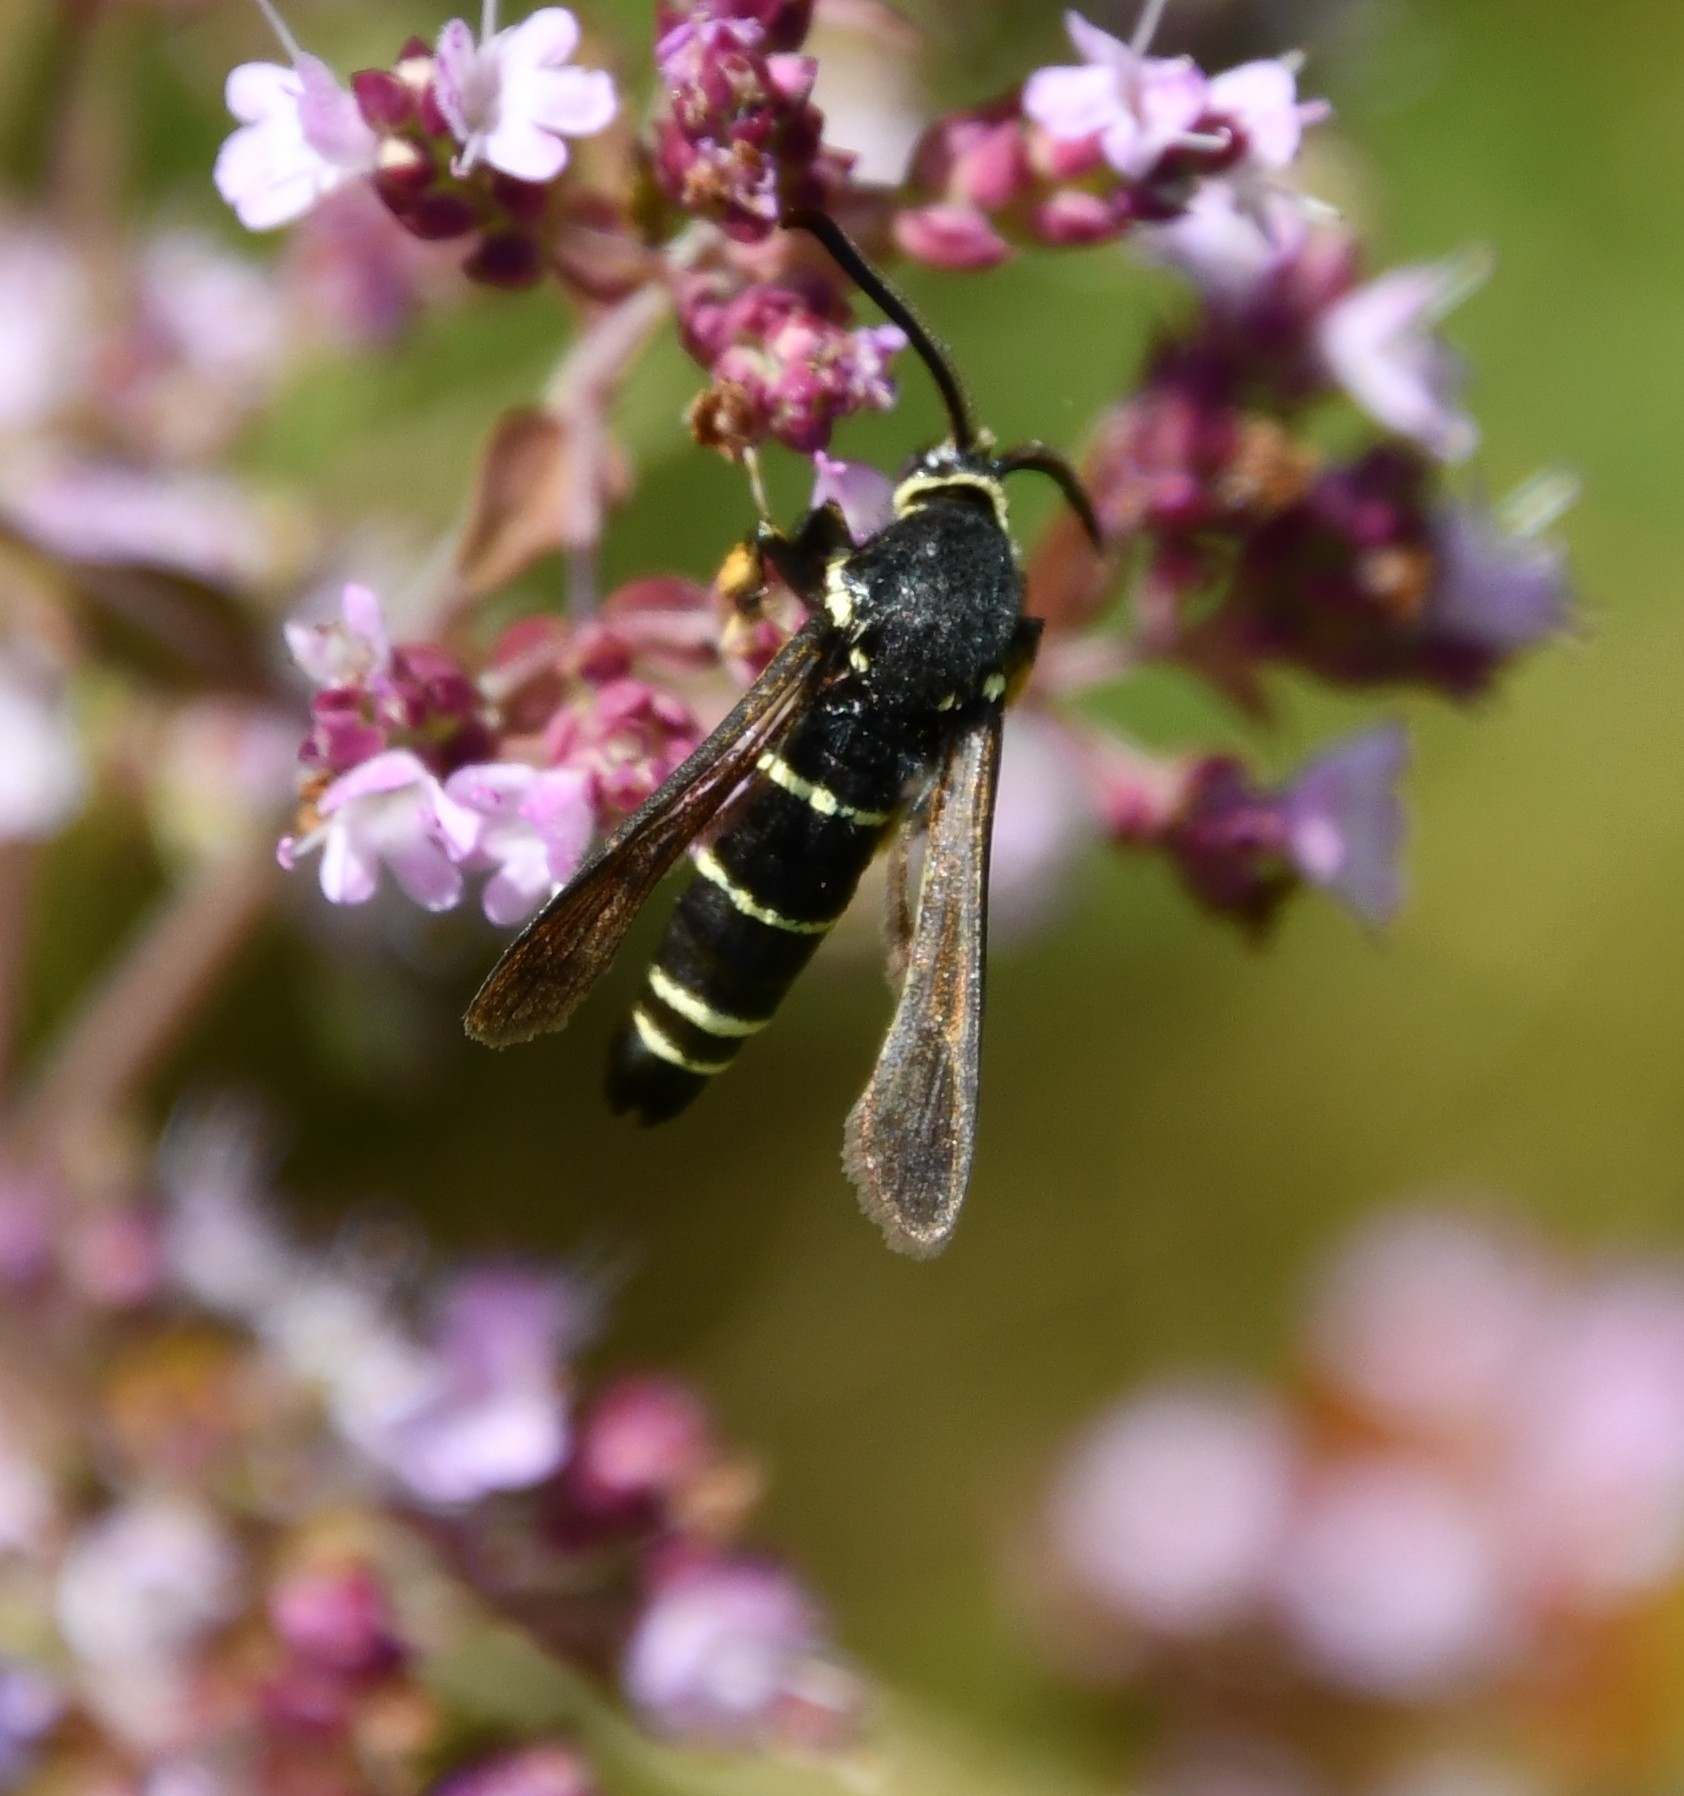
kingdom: Animalia
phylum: Arthropoda
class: Insecta
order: Lepidoptera
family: Sesiidae
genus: Paranthrene
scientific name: Paranthrene tabaniformis
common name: Dusky clearwing
